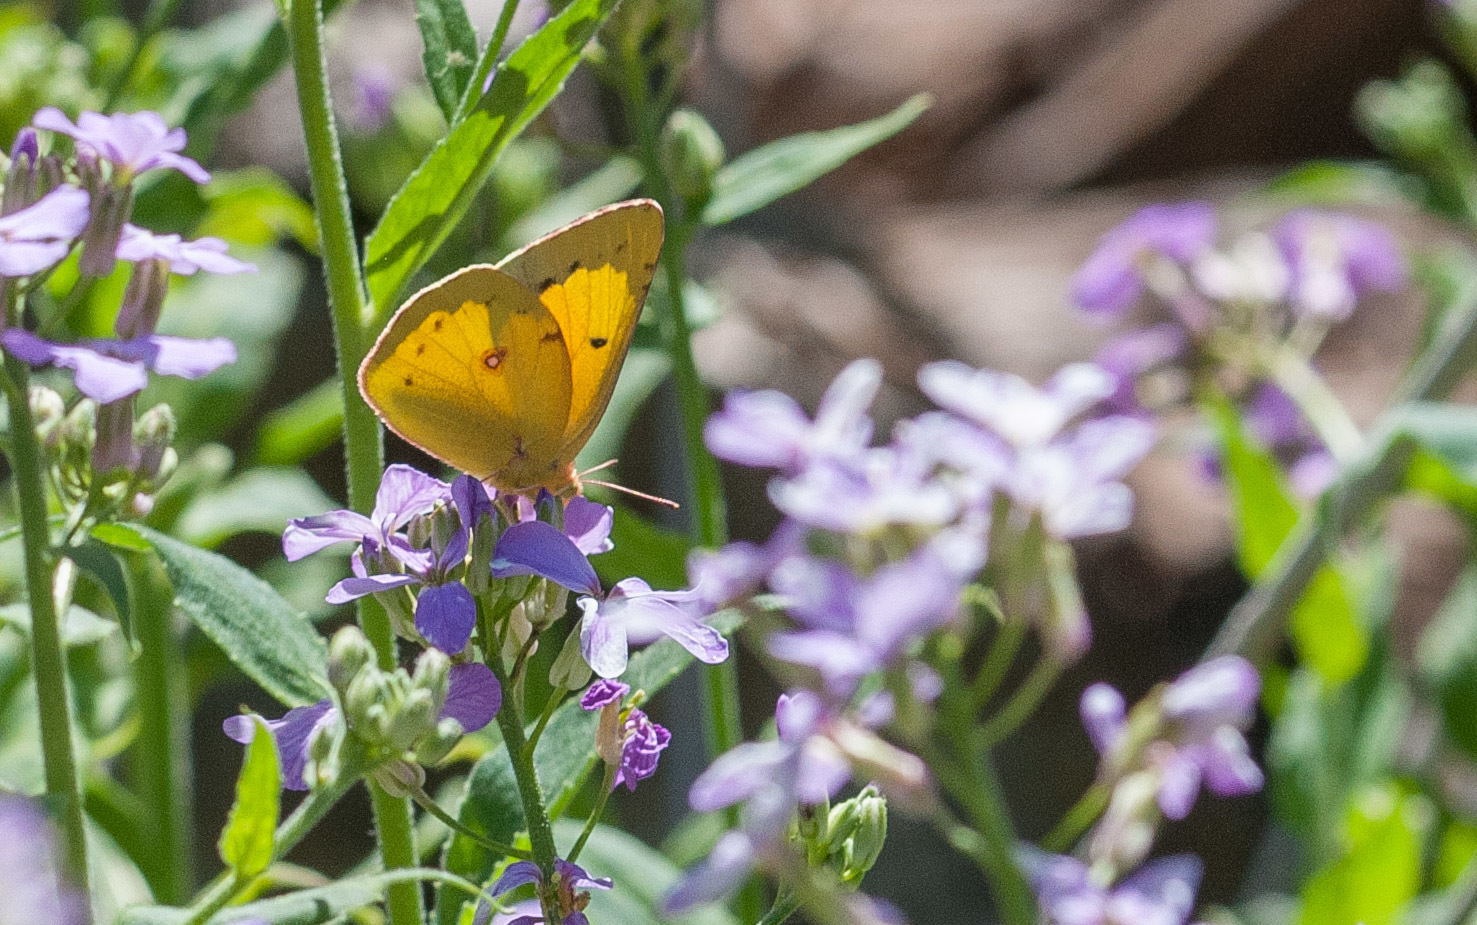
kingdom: Animalia
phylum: Arthropoda
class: Insecta
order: Lepidoptera
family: Pieridae
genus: Colias
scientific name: Colias philodice
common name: Clouded sulphur
